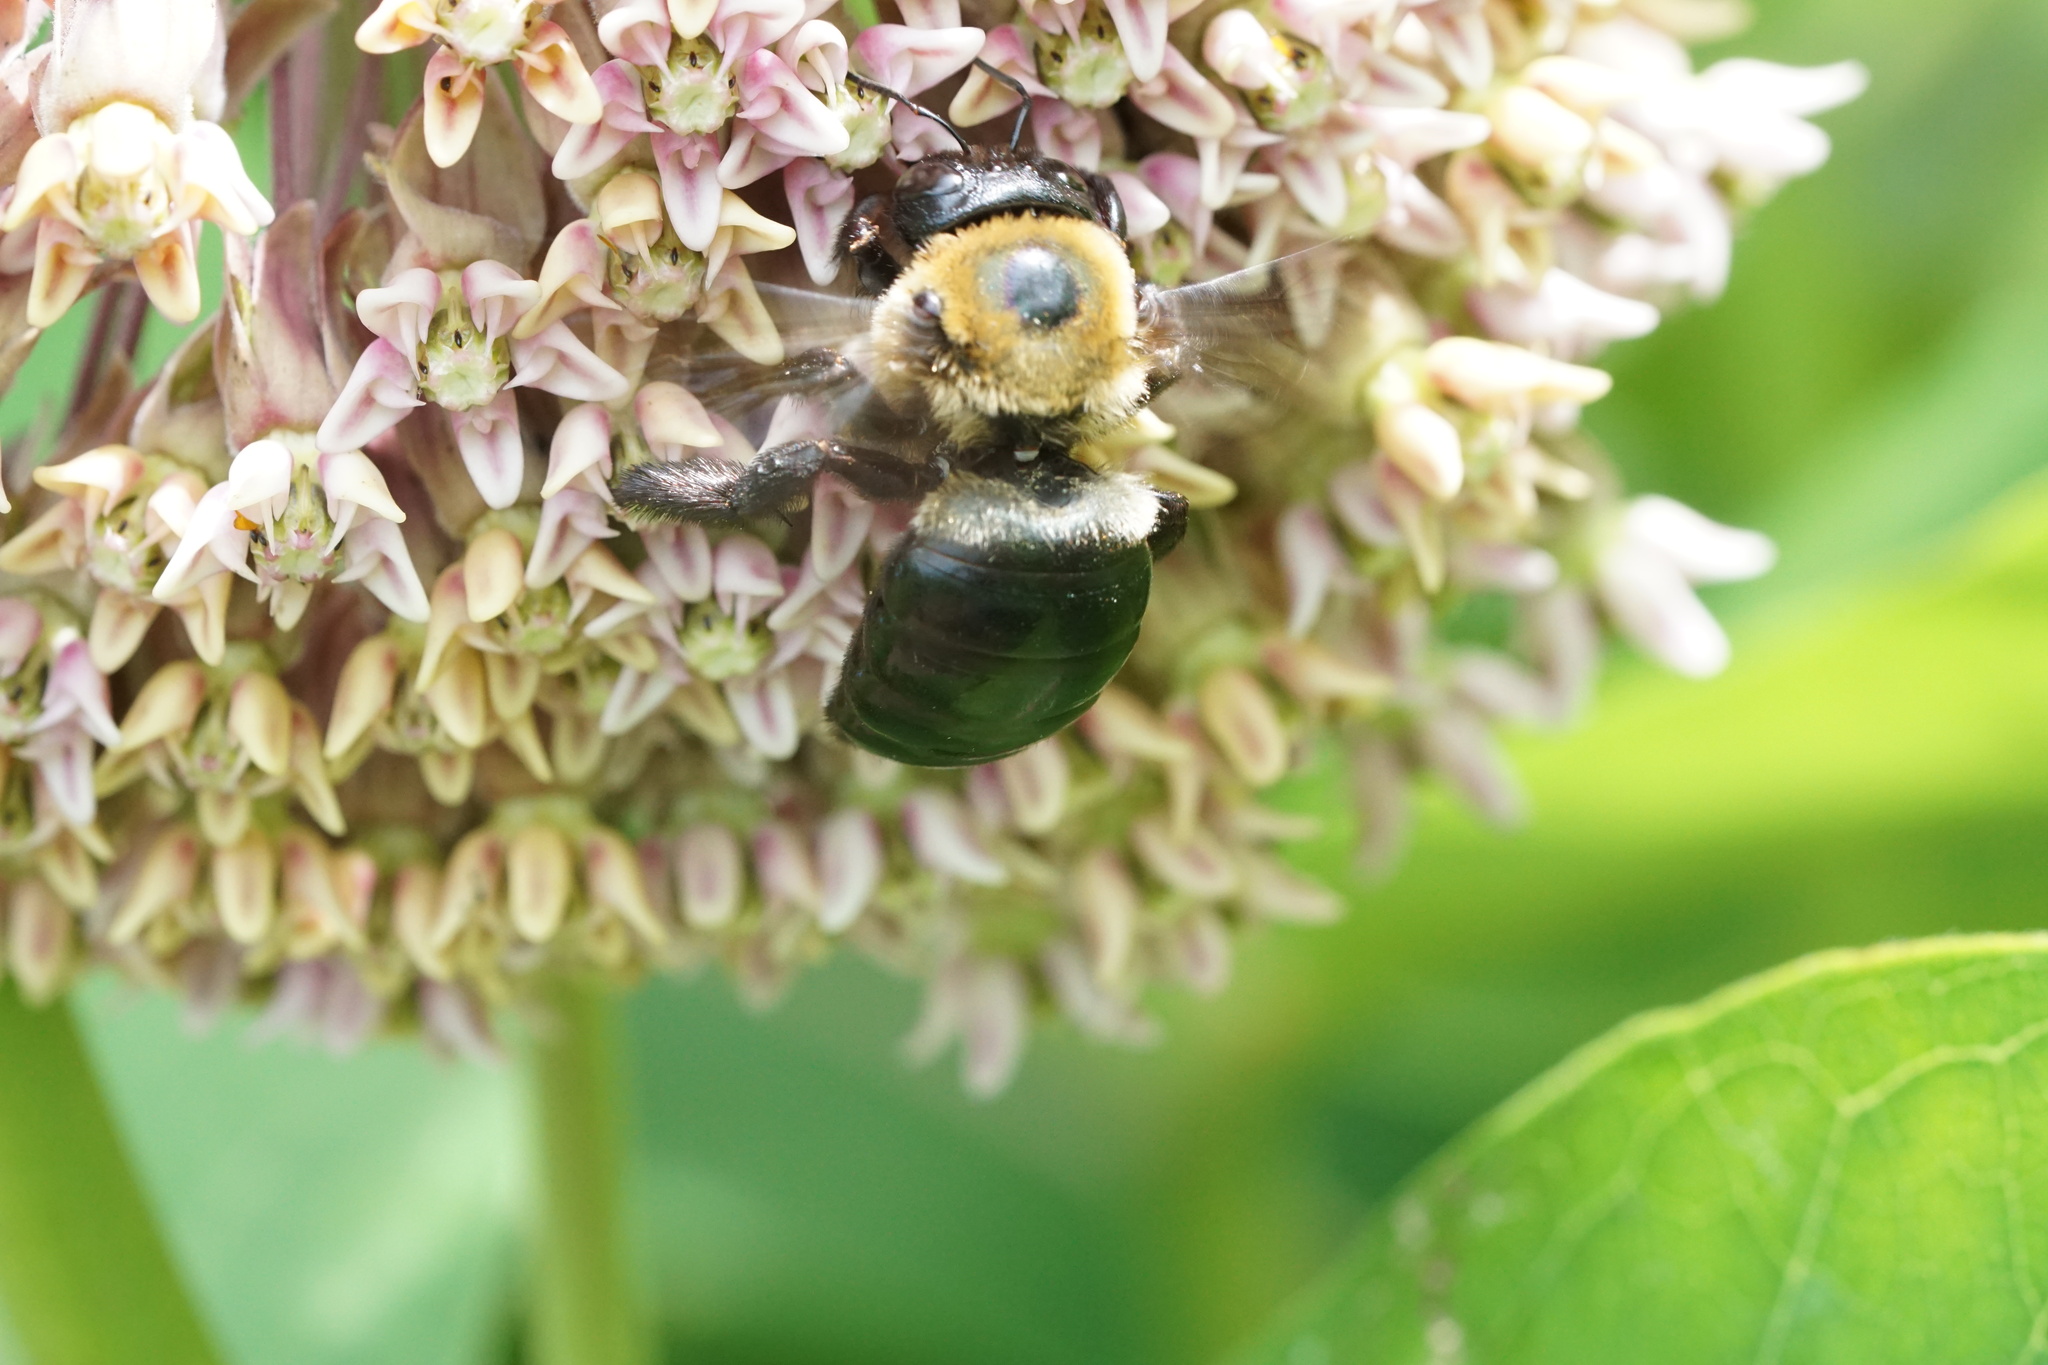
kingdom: Animalia
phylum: Arthropoda
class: Insecta
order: Hymenoptera
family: Apidae
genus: Xylocopa
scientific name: Xylocopa virginica
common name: Carpenter bee
